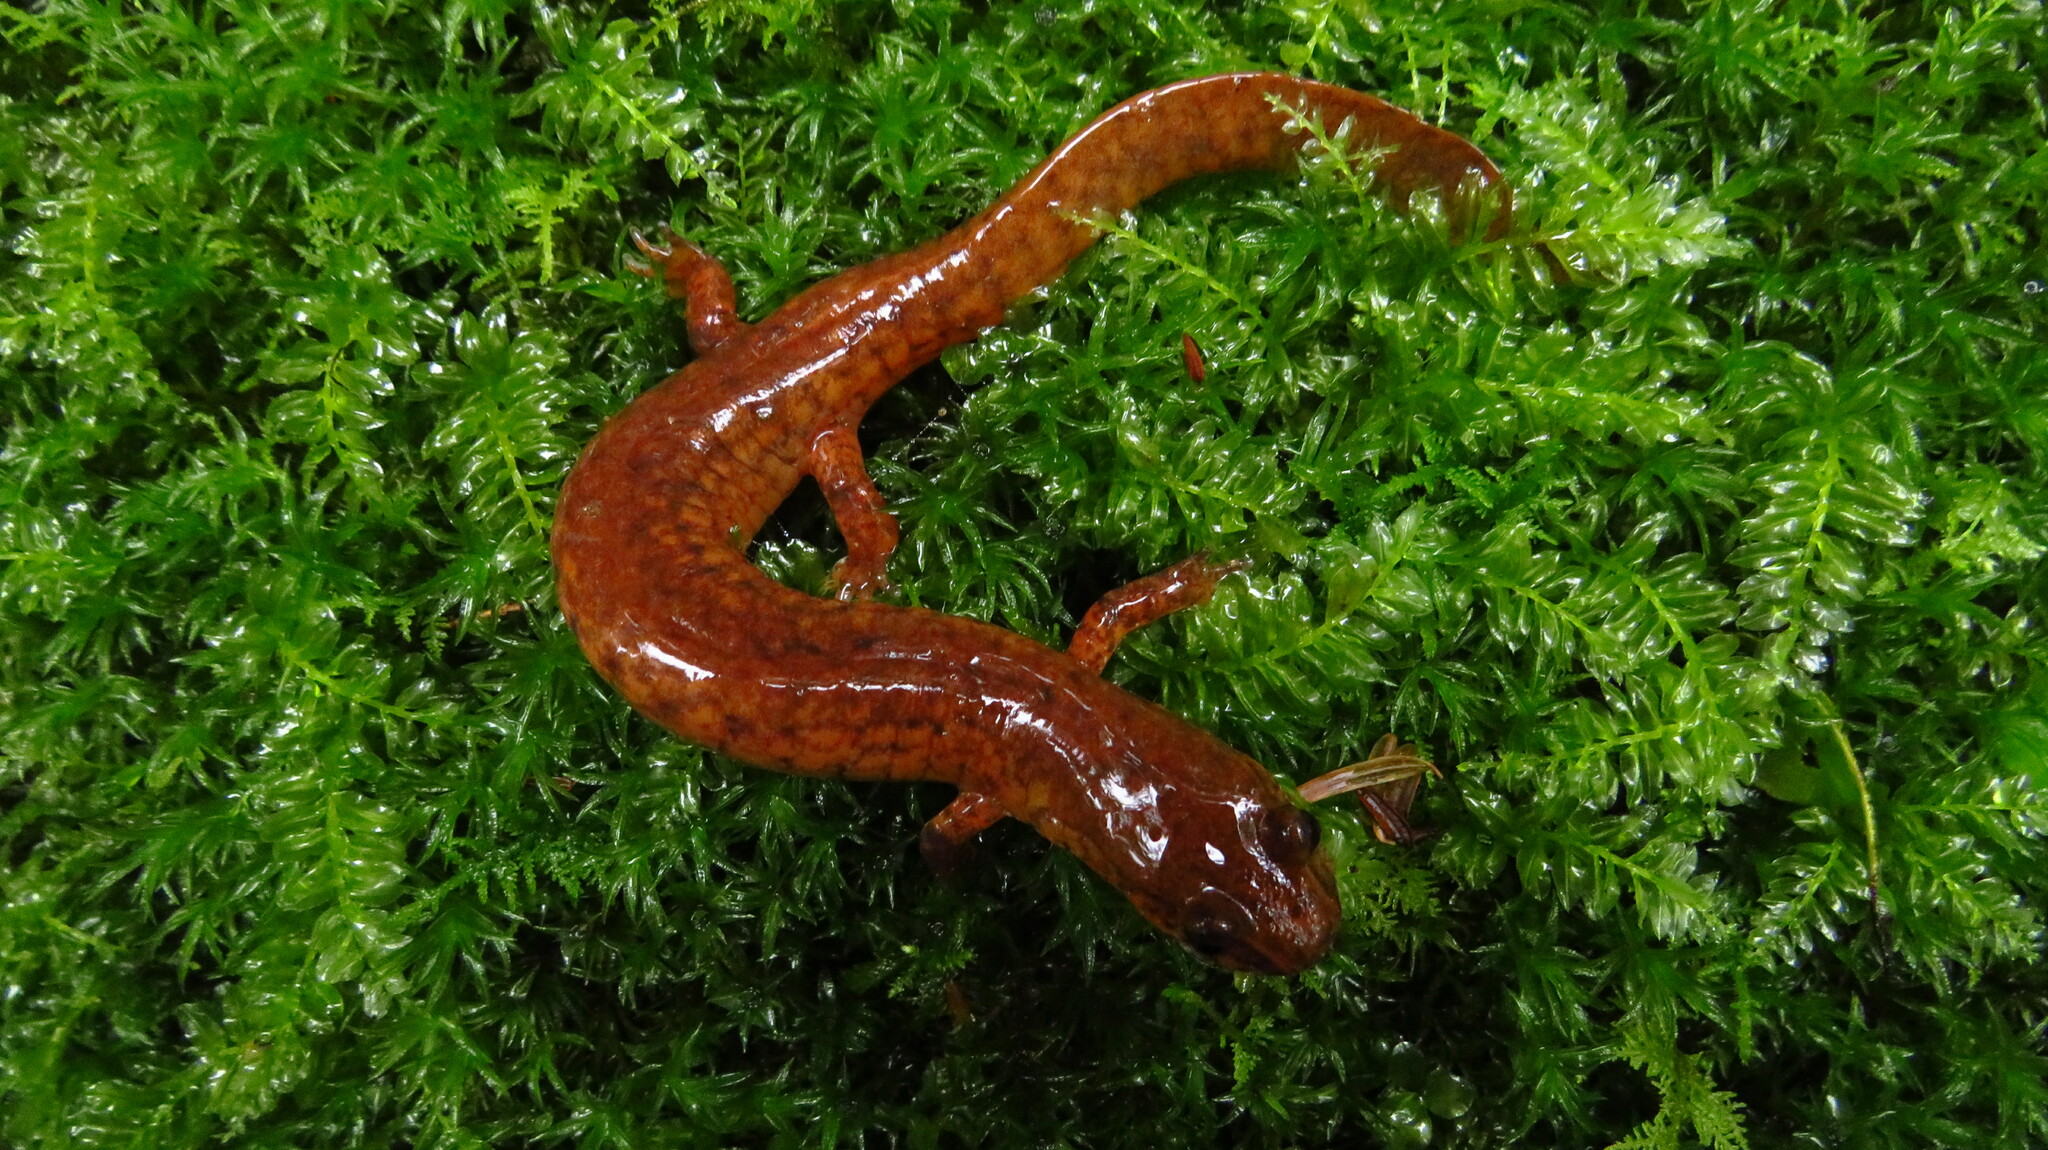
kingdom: Animalia
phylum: Chordata
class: Amphibia
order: Caudata
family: Plethodontidae
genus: Gyrinophilus
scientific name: Gyrinophilus porphyriticus
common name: Spring salamander
